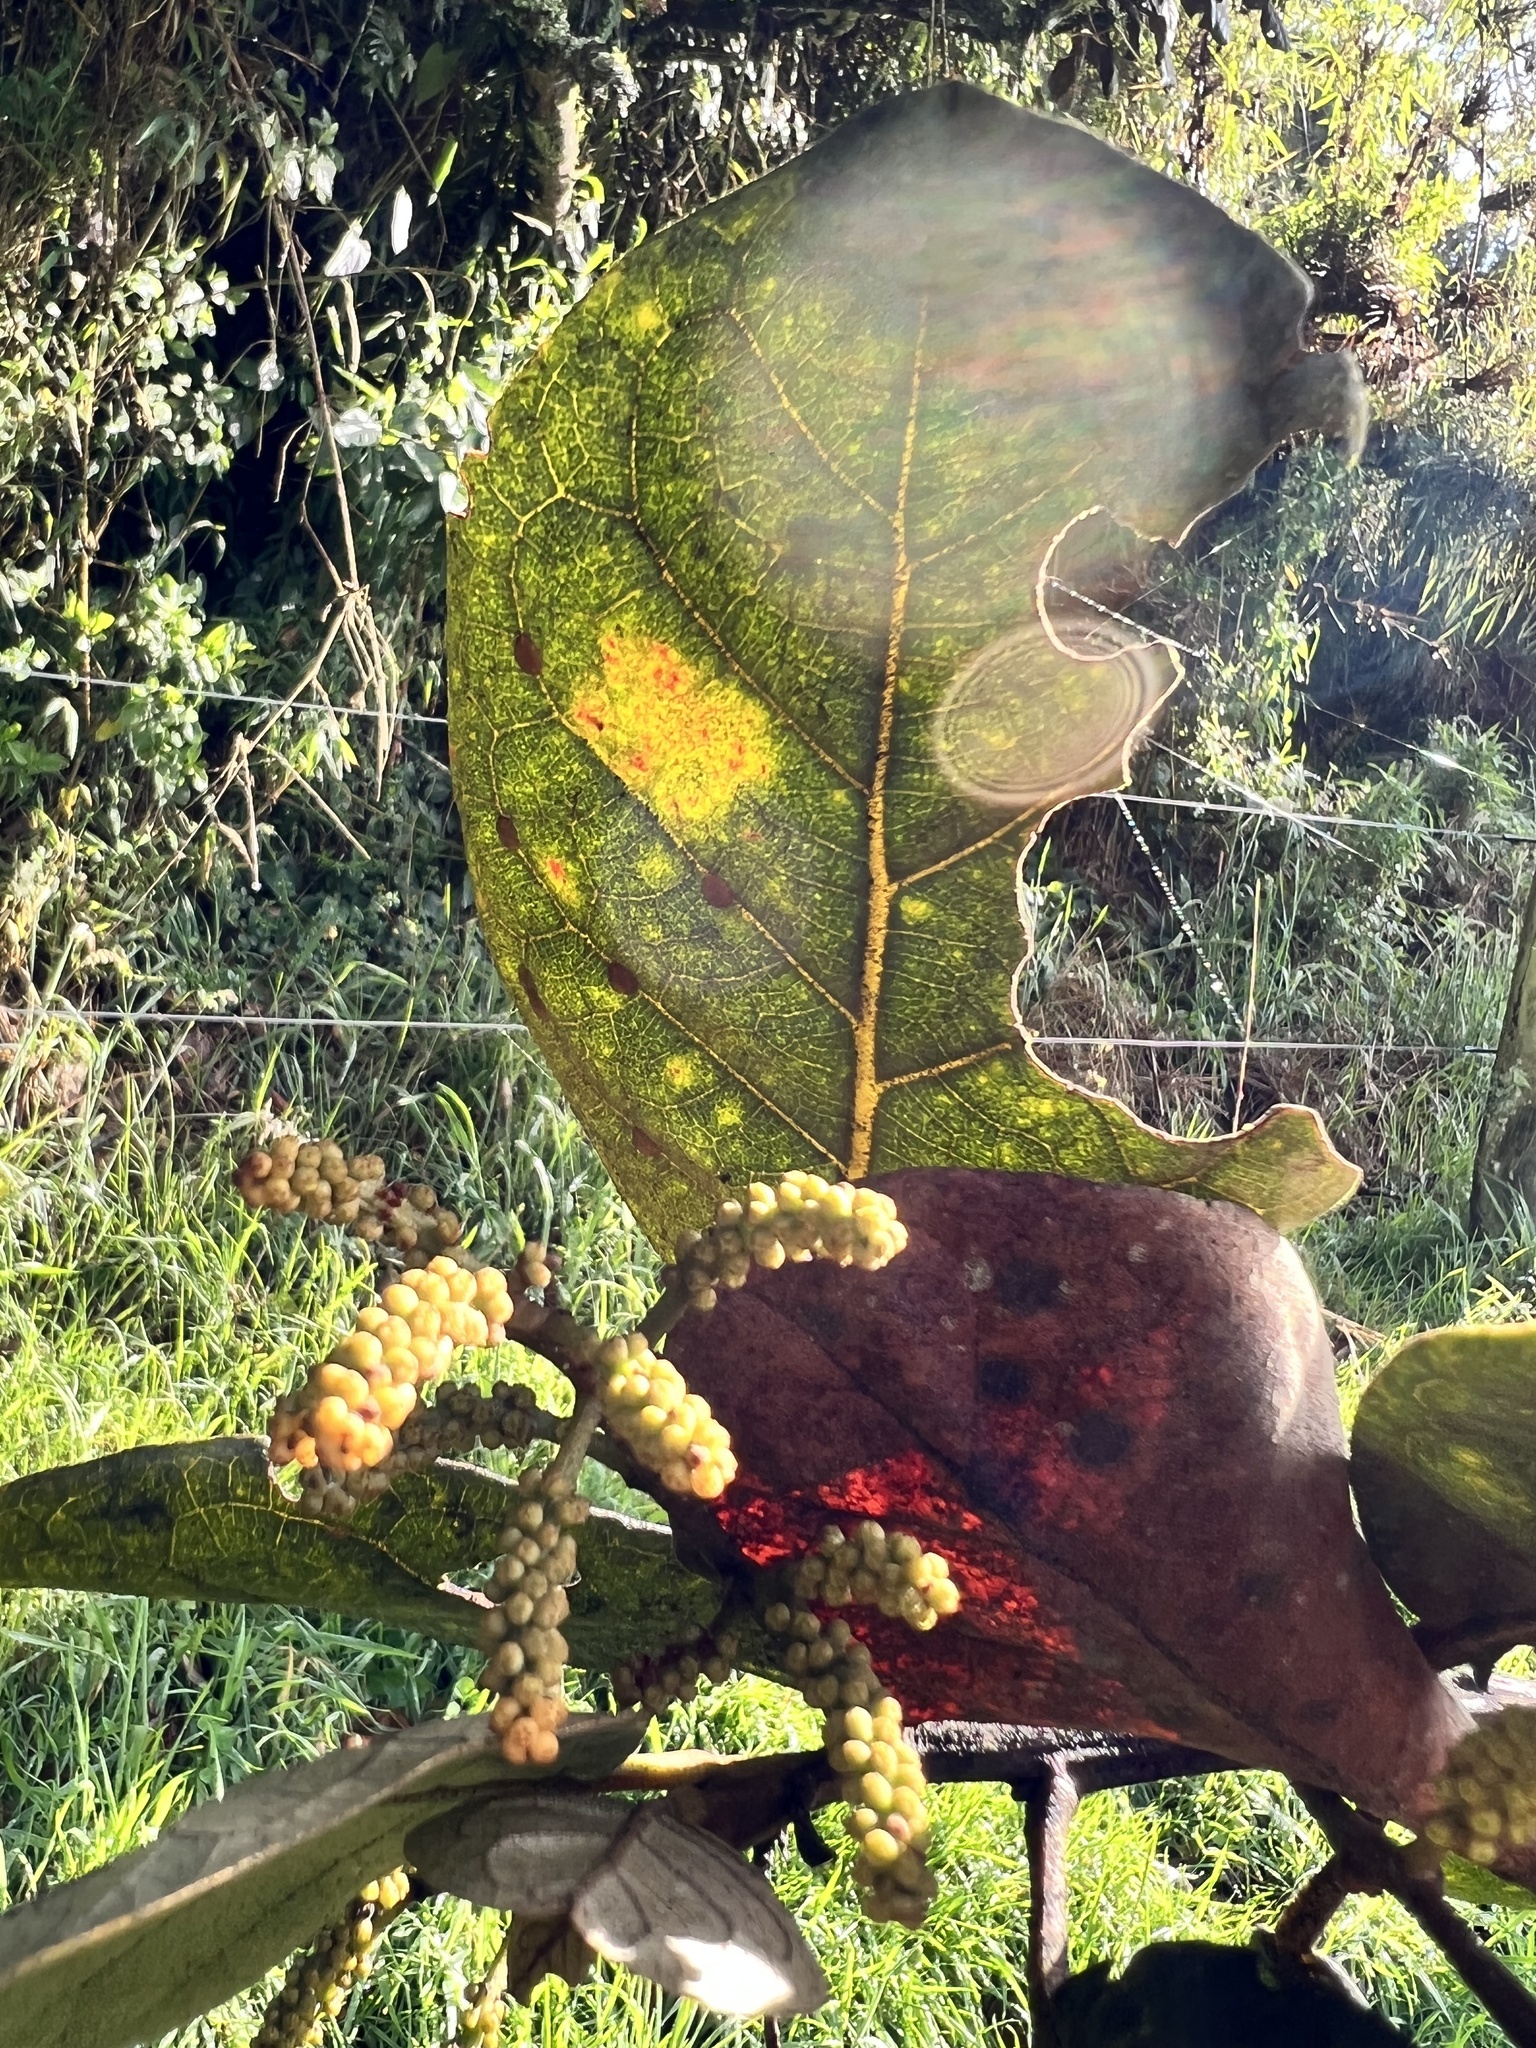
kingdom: Plantae
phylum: Tracheophyta
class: Magnoliopsida
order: Malpighiales
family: Phyllanthaceae
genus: Hieronyma
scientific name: Hieronyma rufa
